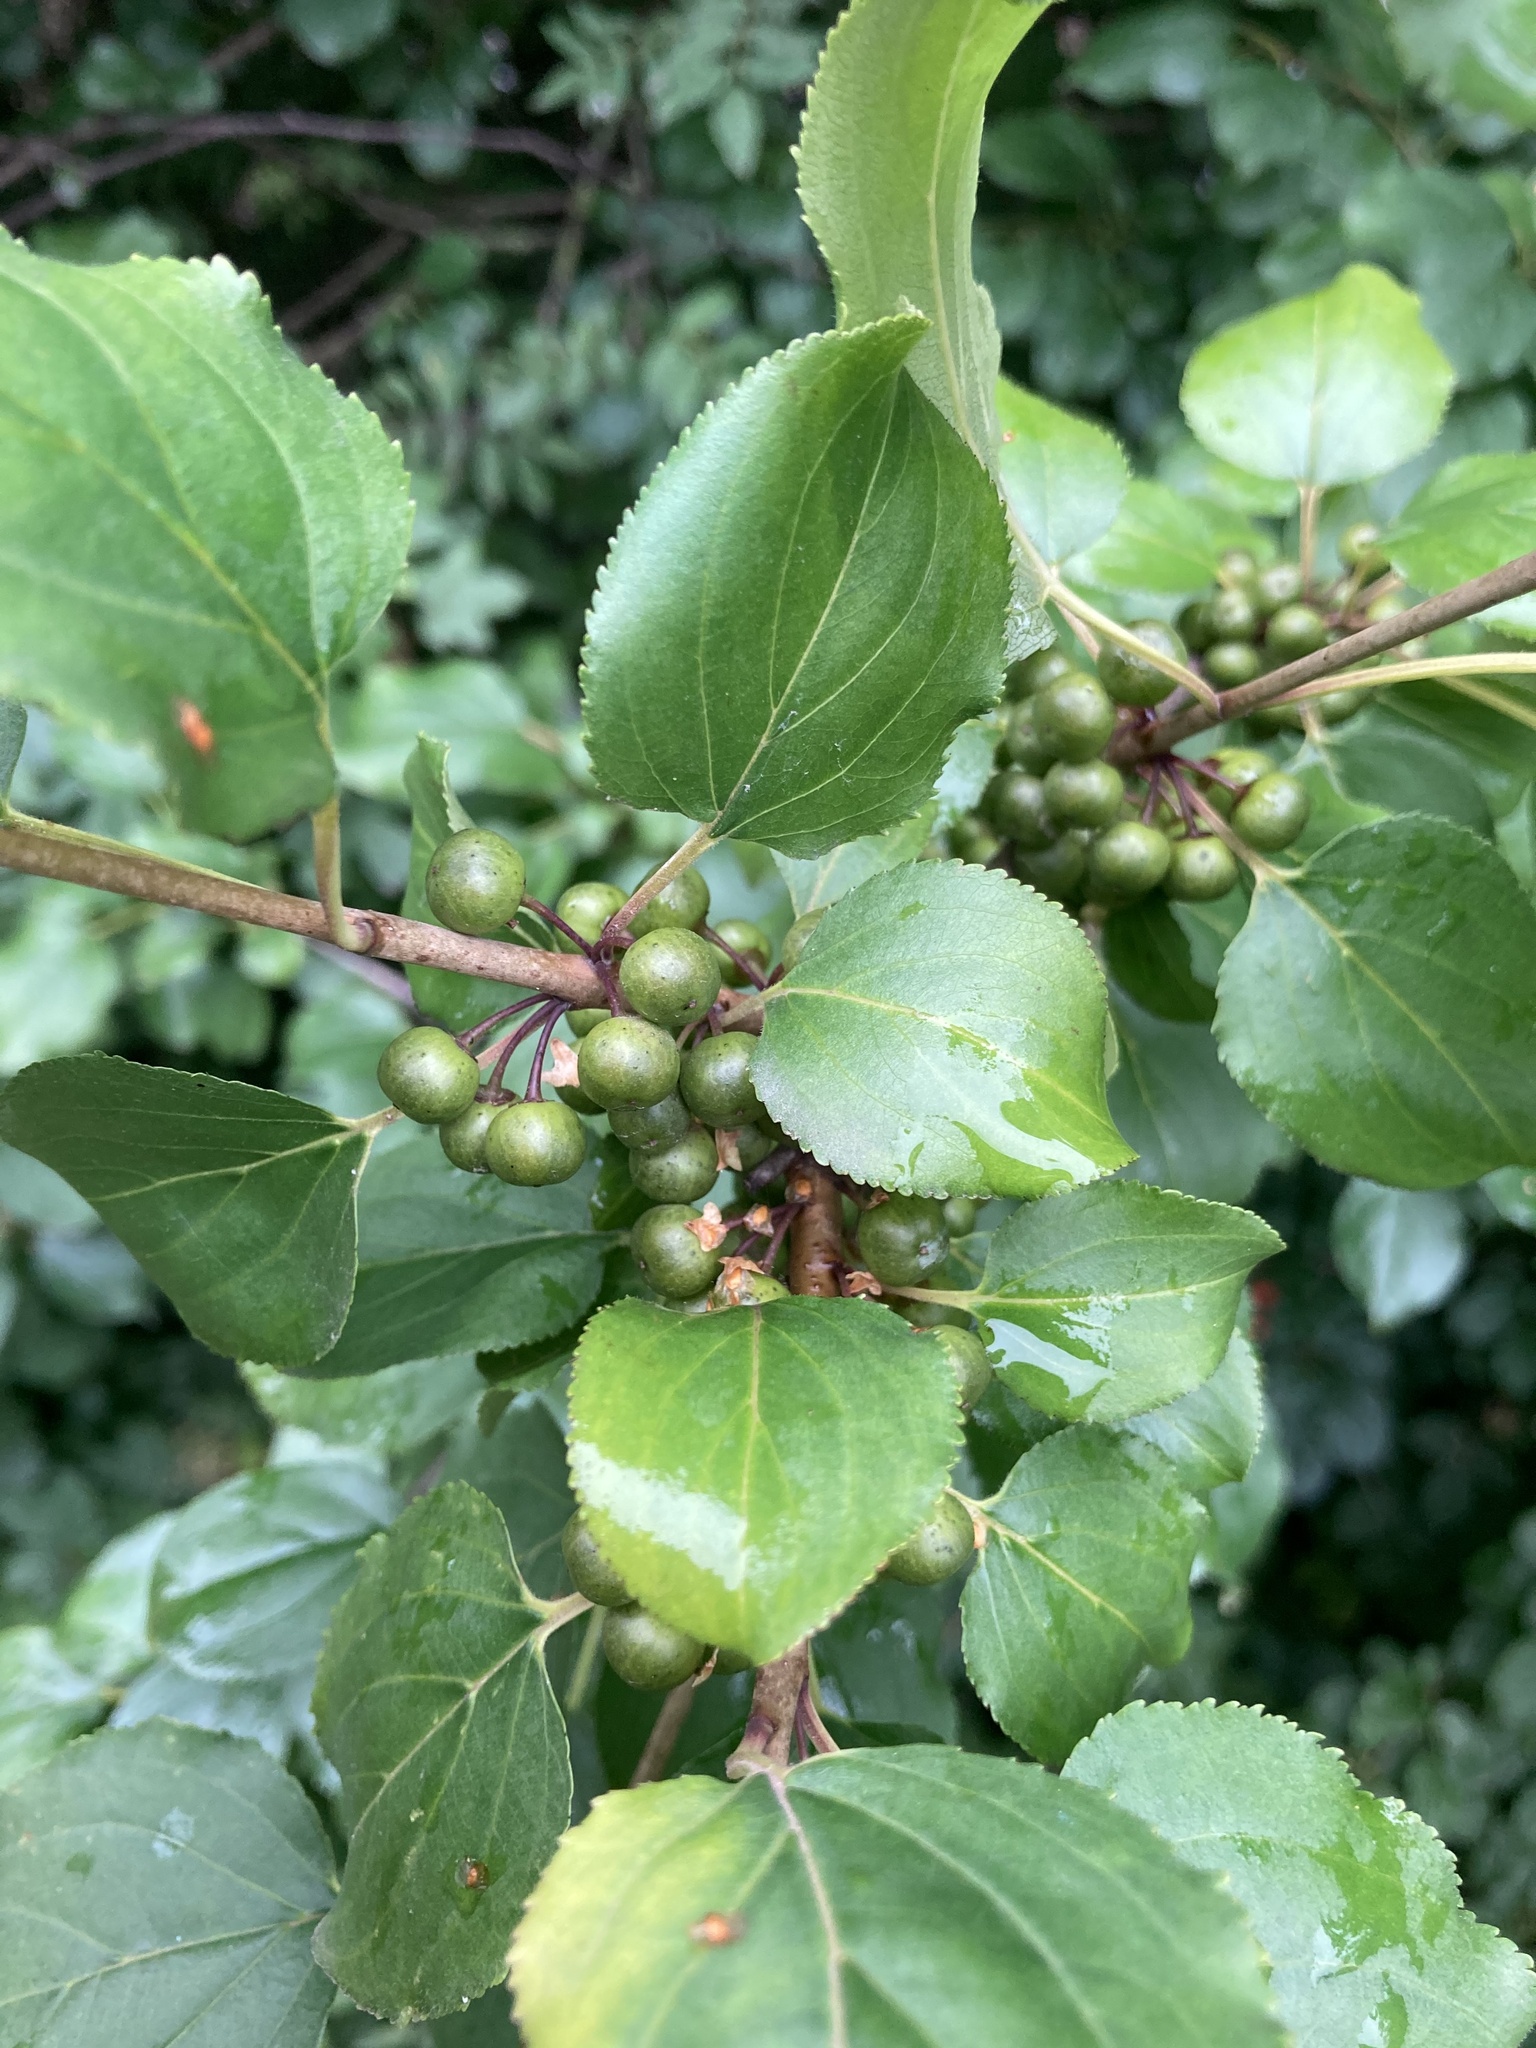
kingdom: Plantae
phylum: Tracheophyta
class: Magnoliopsida
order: Rosales
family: Rhamnaceae
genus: Rhamnus
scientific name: Rhamnus cathartica
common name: Common buckthorn
